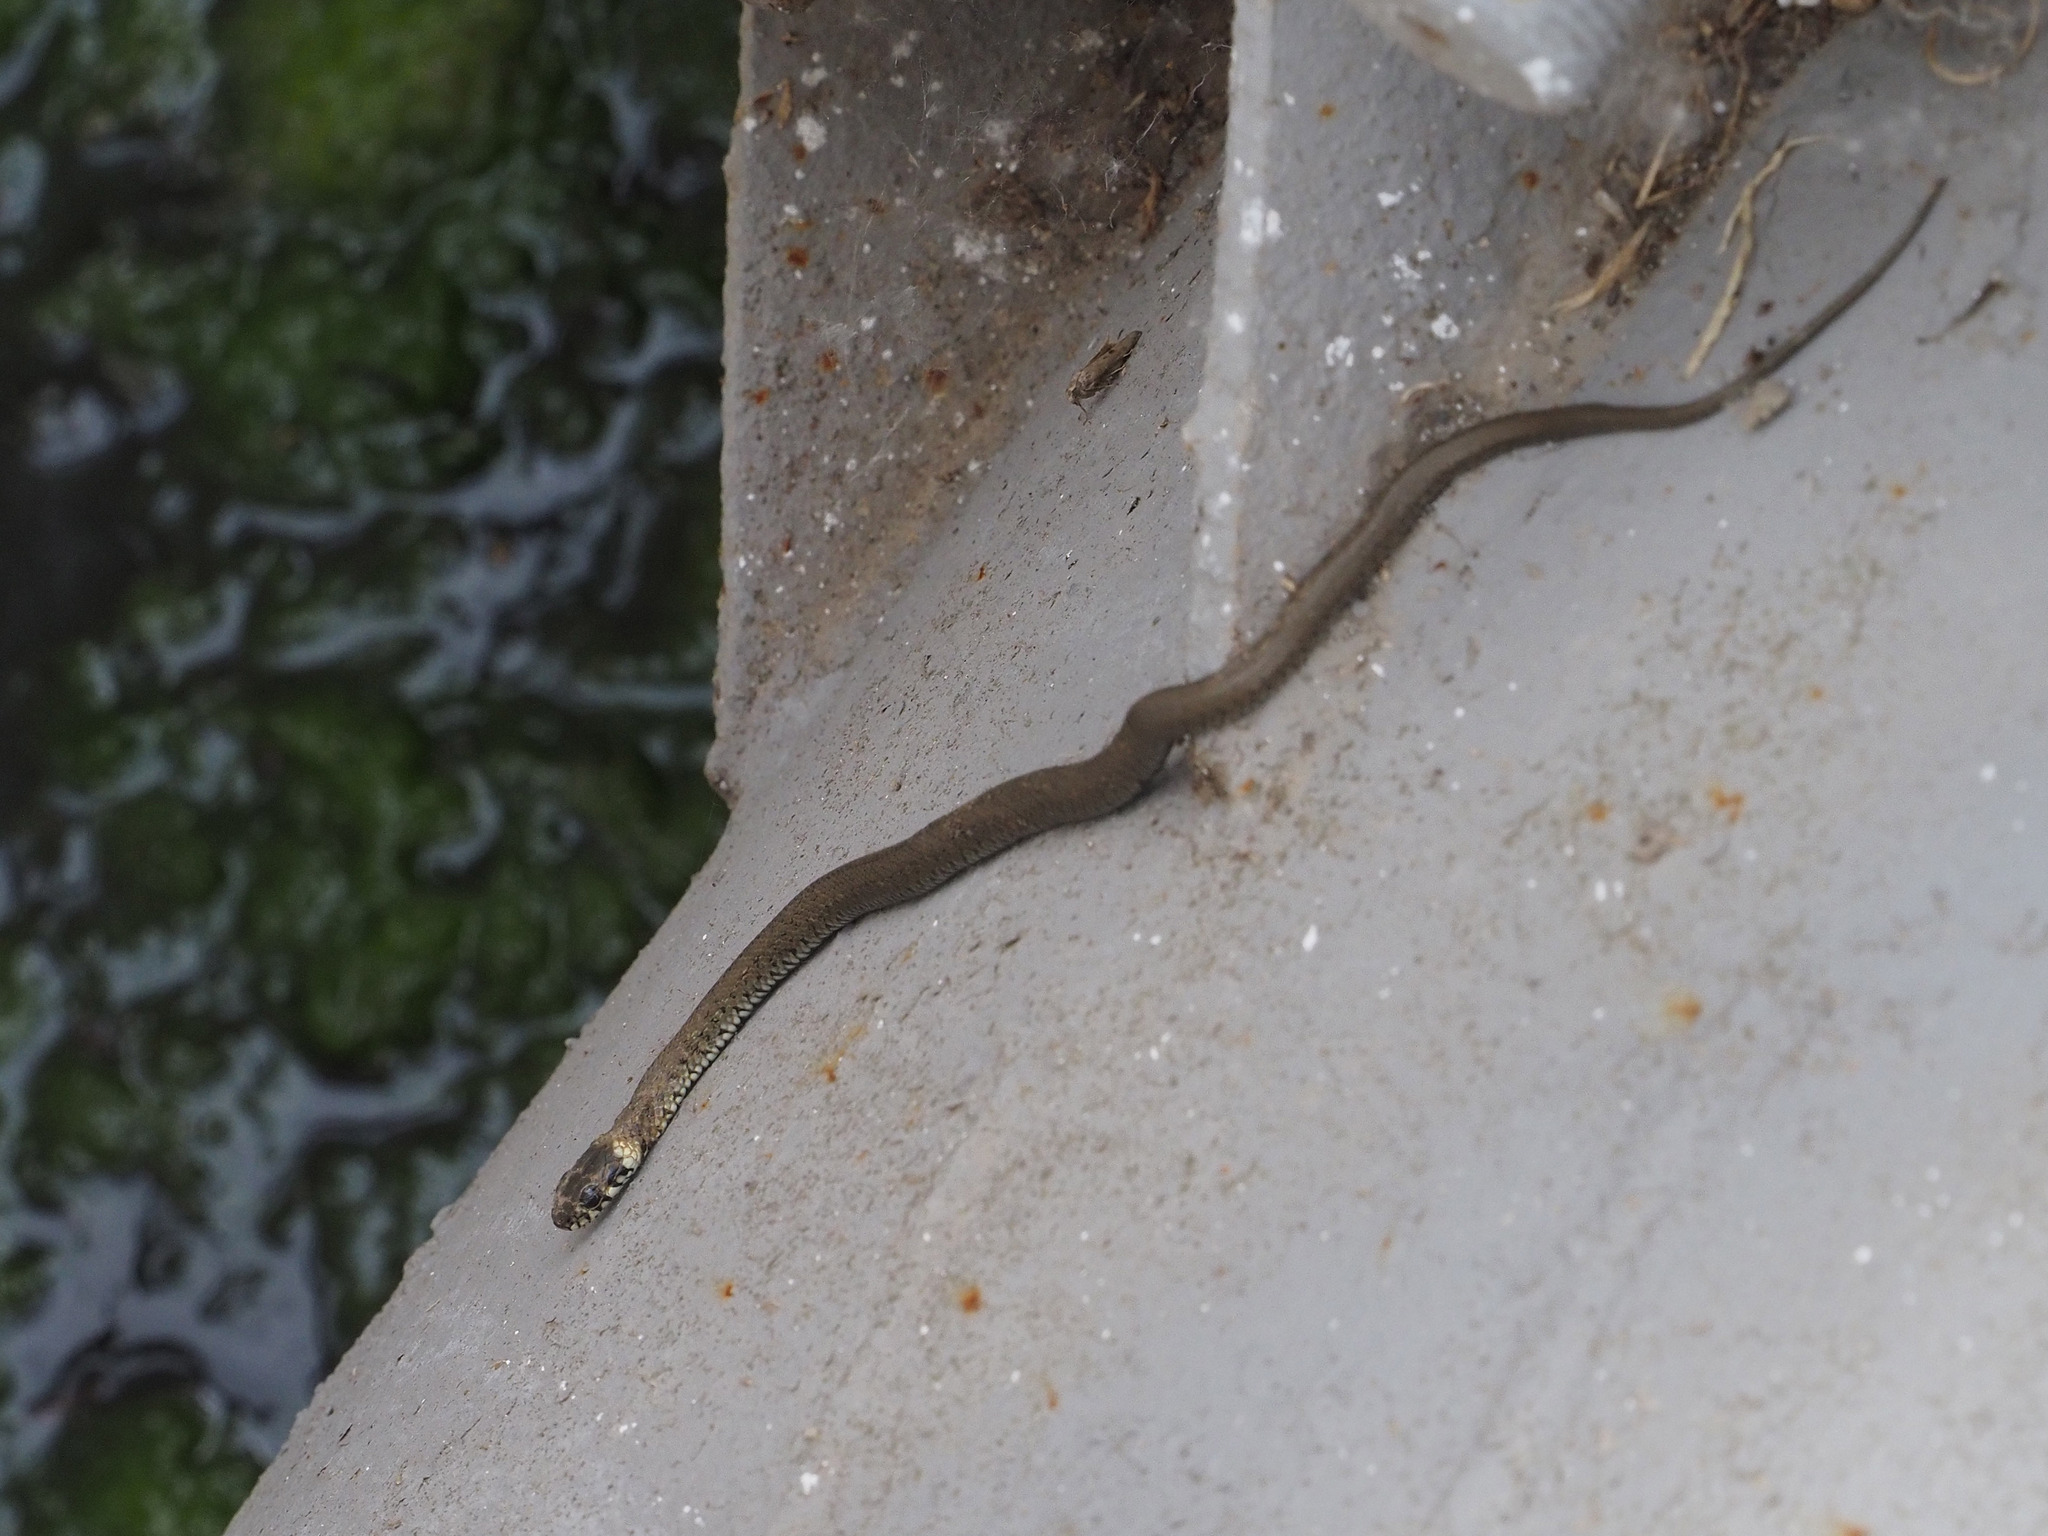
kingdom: Animalia
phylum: Chordata
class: Squamata
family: Colubridae
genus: Natrix
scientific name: Natrix natrix
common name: Grass snake
